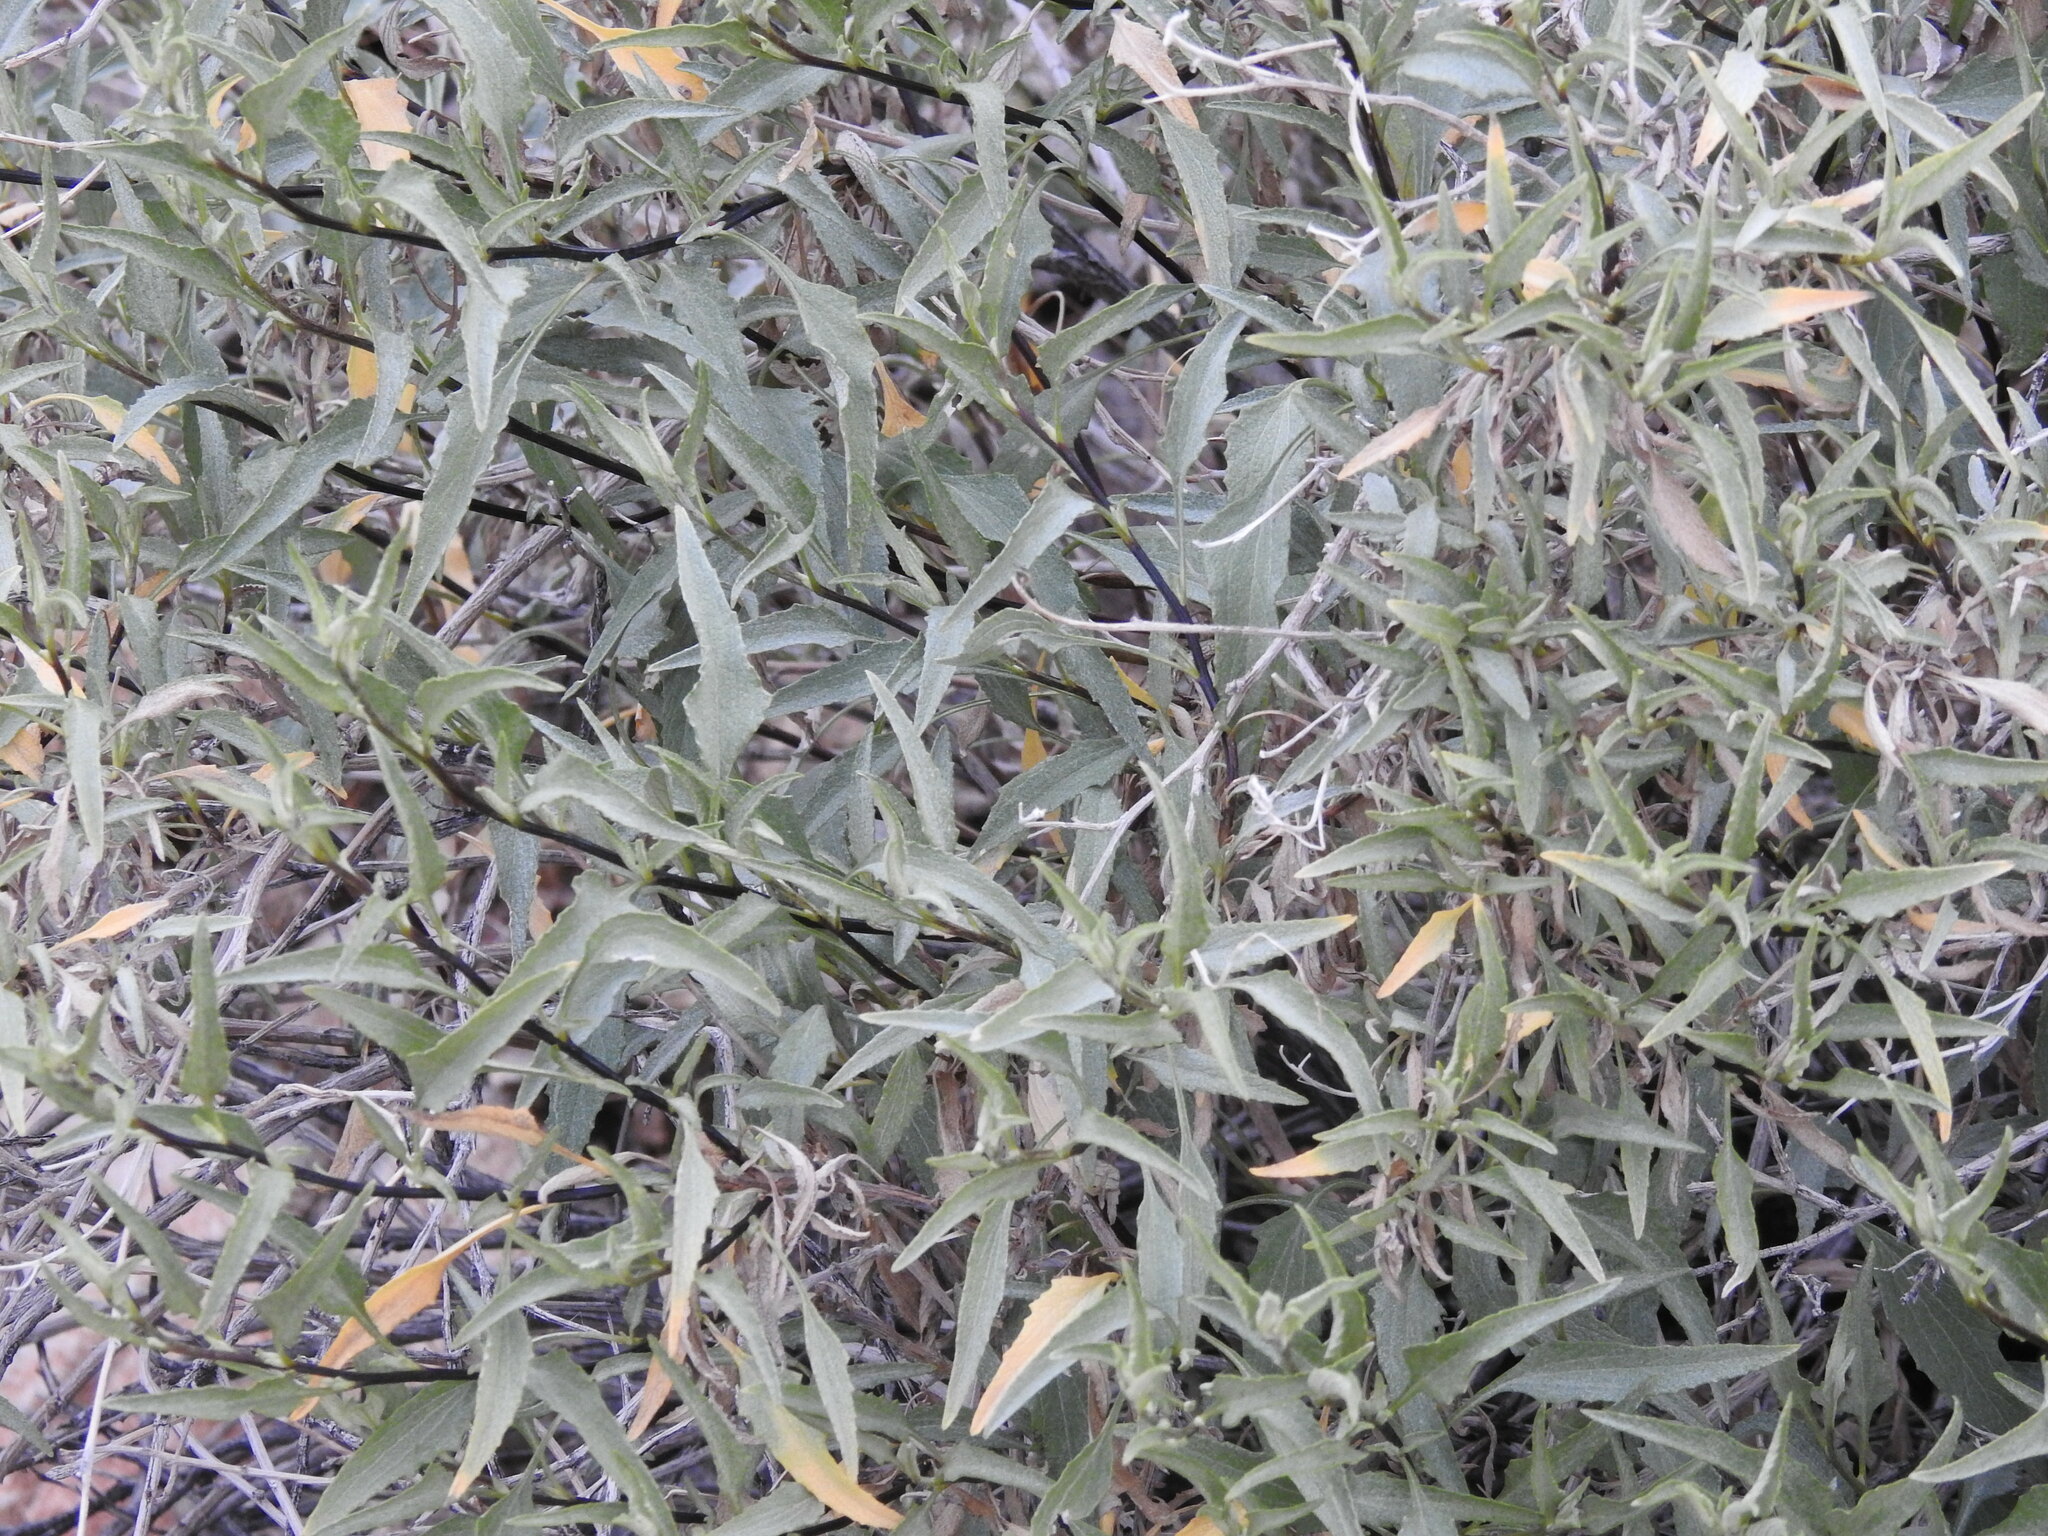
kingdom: Plantae
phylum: Tracheophyta
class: Magnoliopsida
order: Asterales
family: Asteraceae
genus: Ambrosia
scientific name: Ambrosia deltoidea
